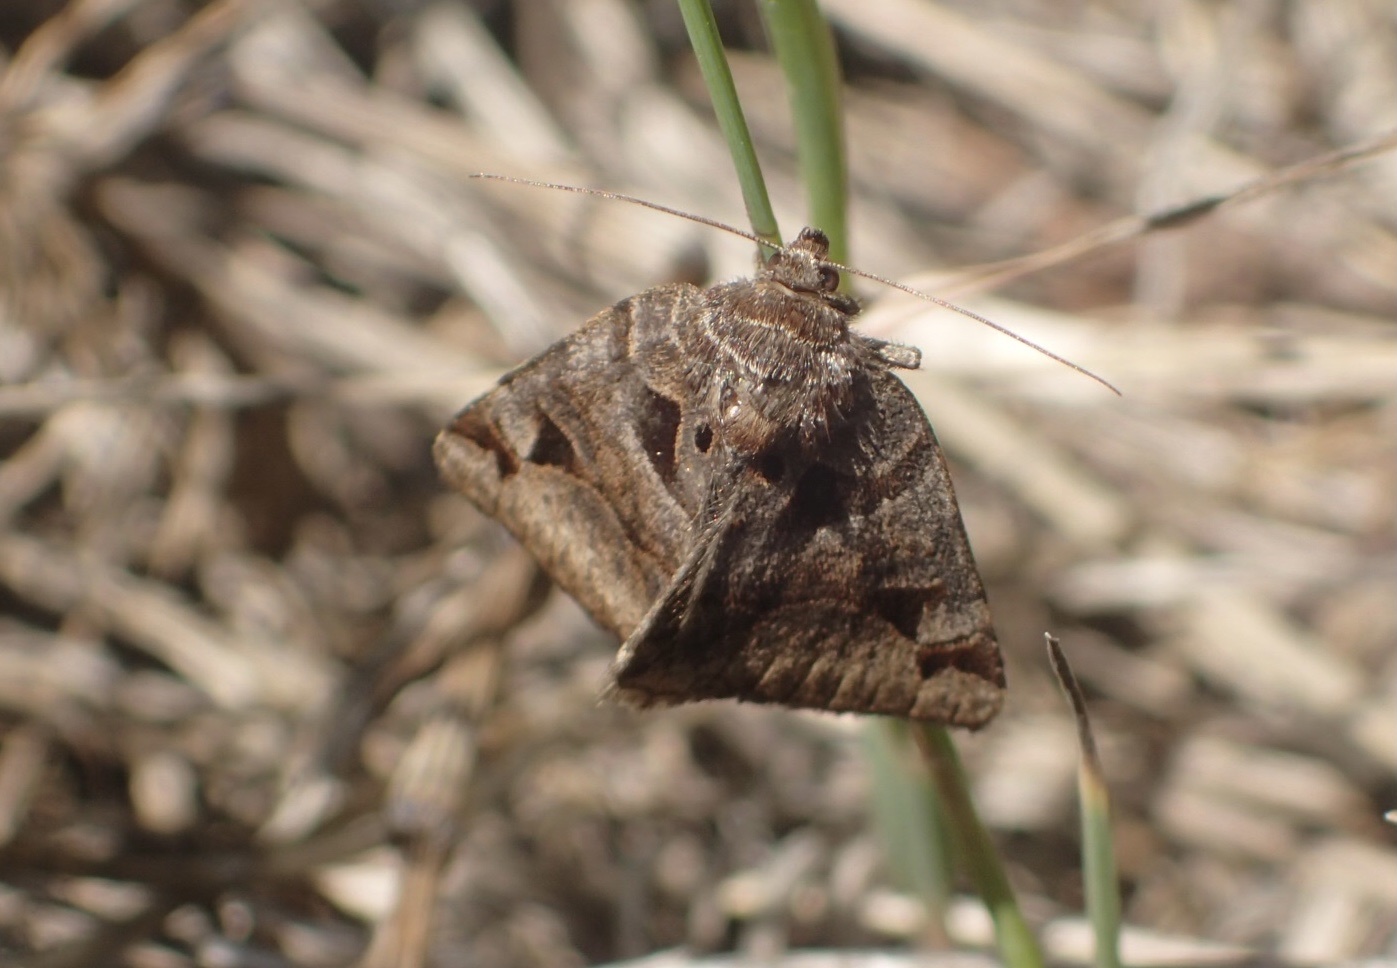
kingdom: Animalia
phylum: Arthropoda
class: Insecta
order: Lepidoptera
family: Erebidae
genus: Euclidia
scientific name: Euclidia cuspidea
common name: Toothed somberwing
